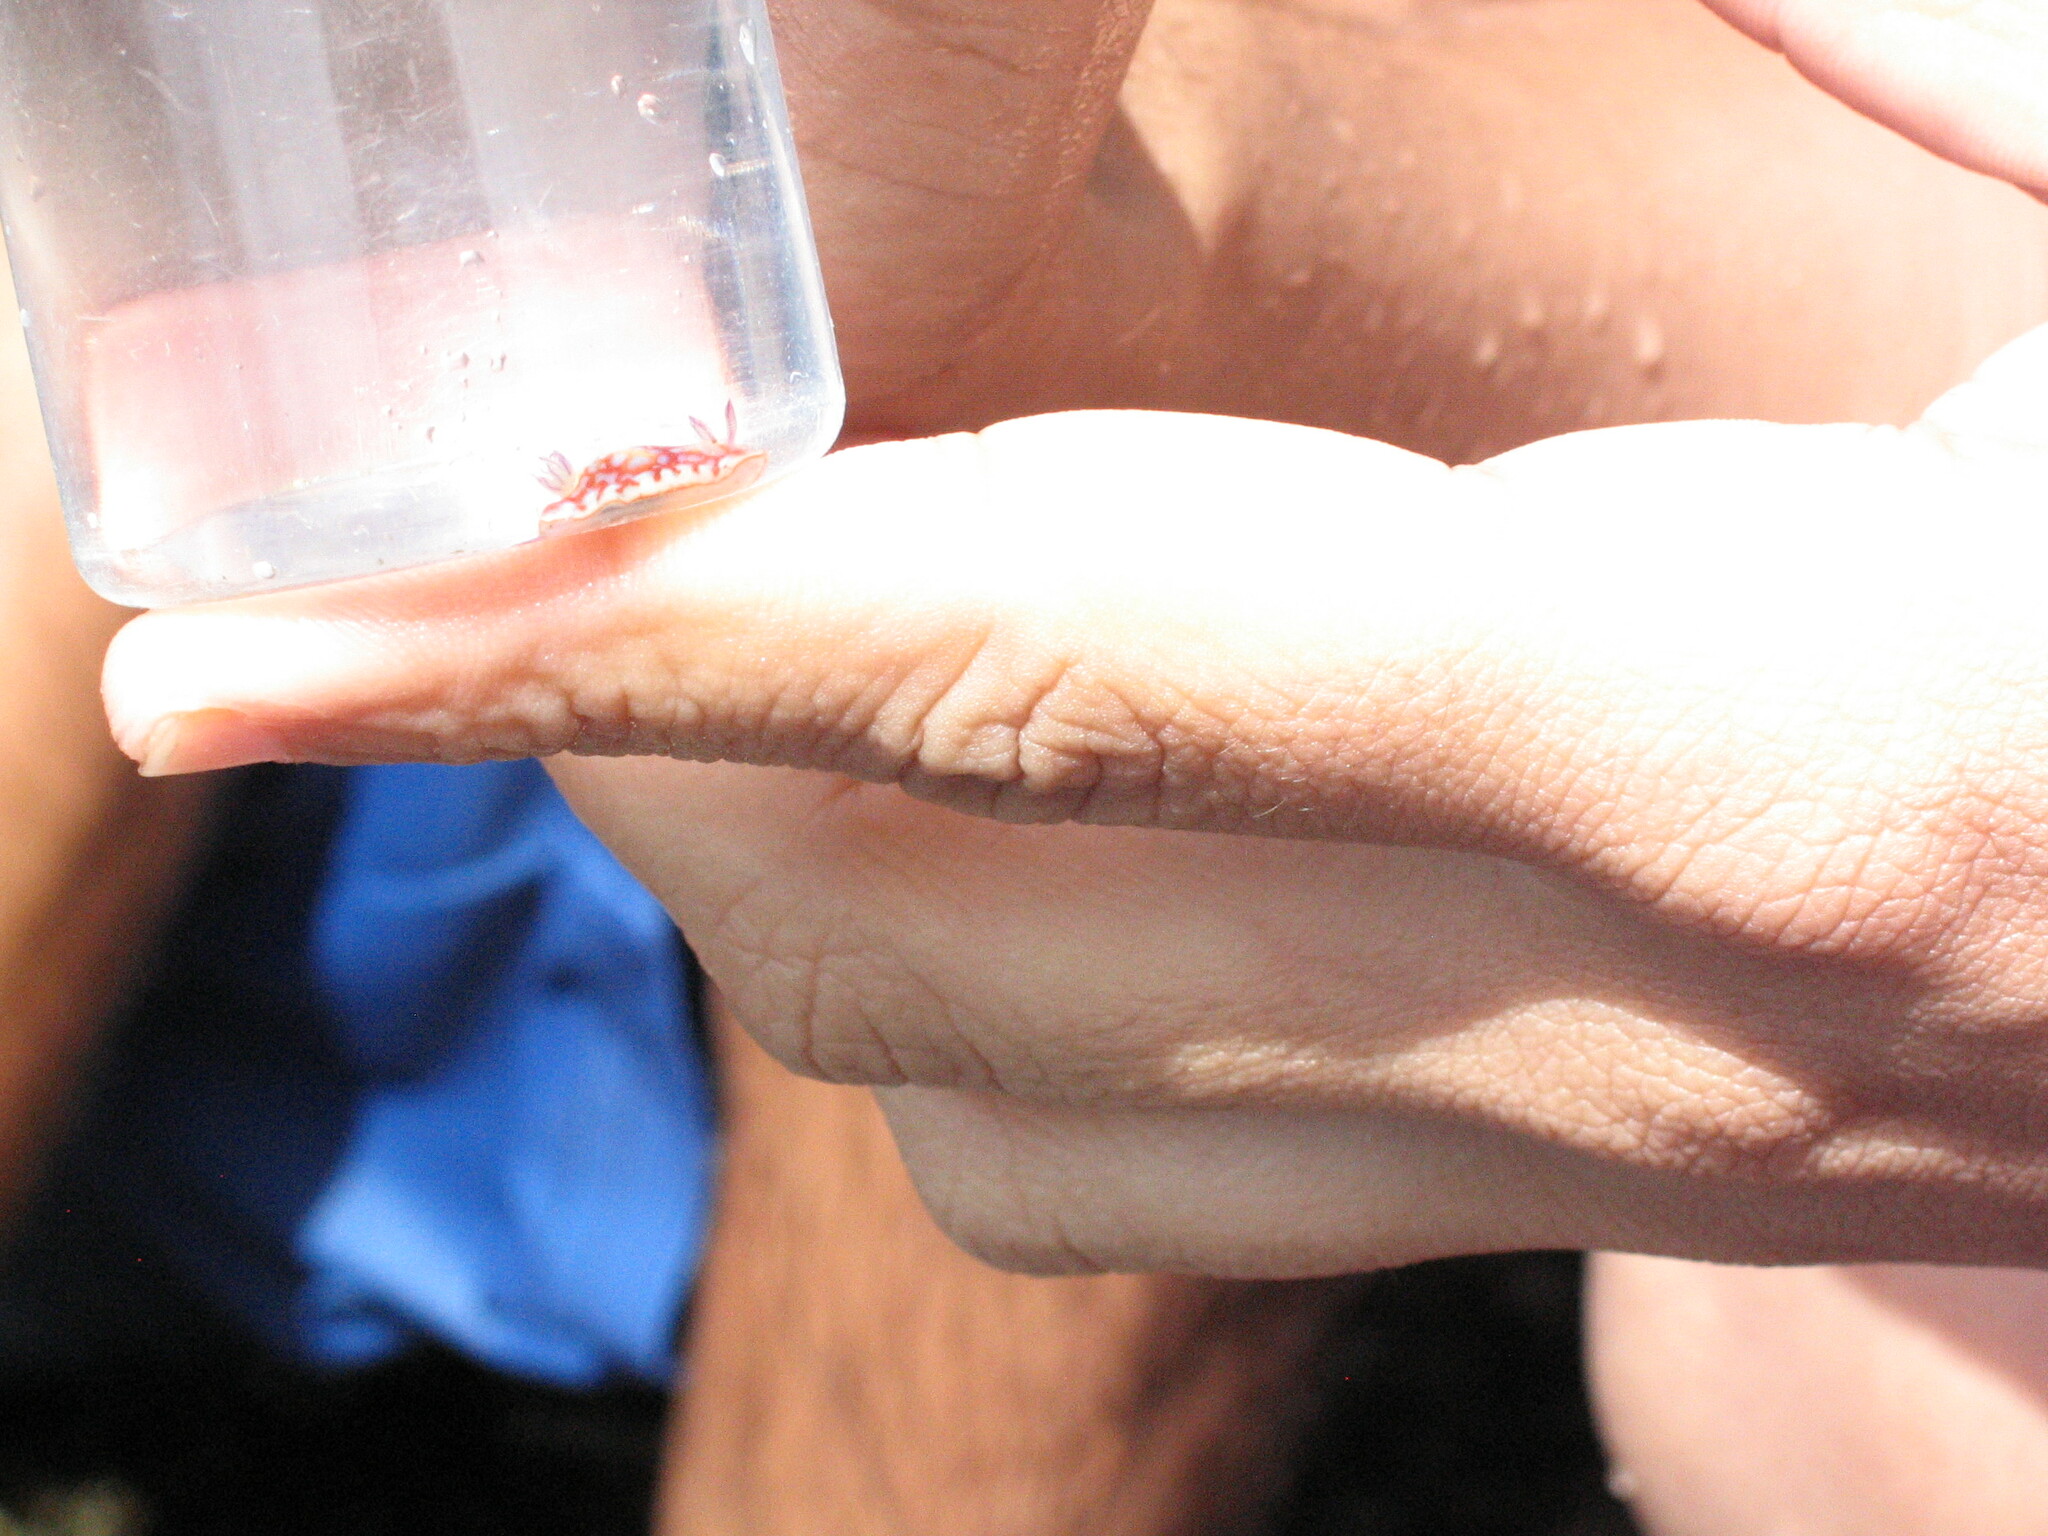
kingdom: Animalia
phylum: Mollusca
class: Gastropoda
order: Nudibranchia
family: Chromodorididae
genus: Felimida
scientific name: Felimida clenchi
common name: Bill clench's doris
